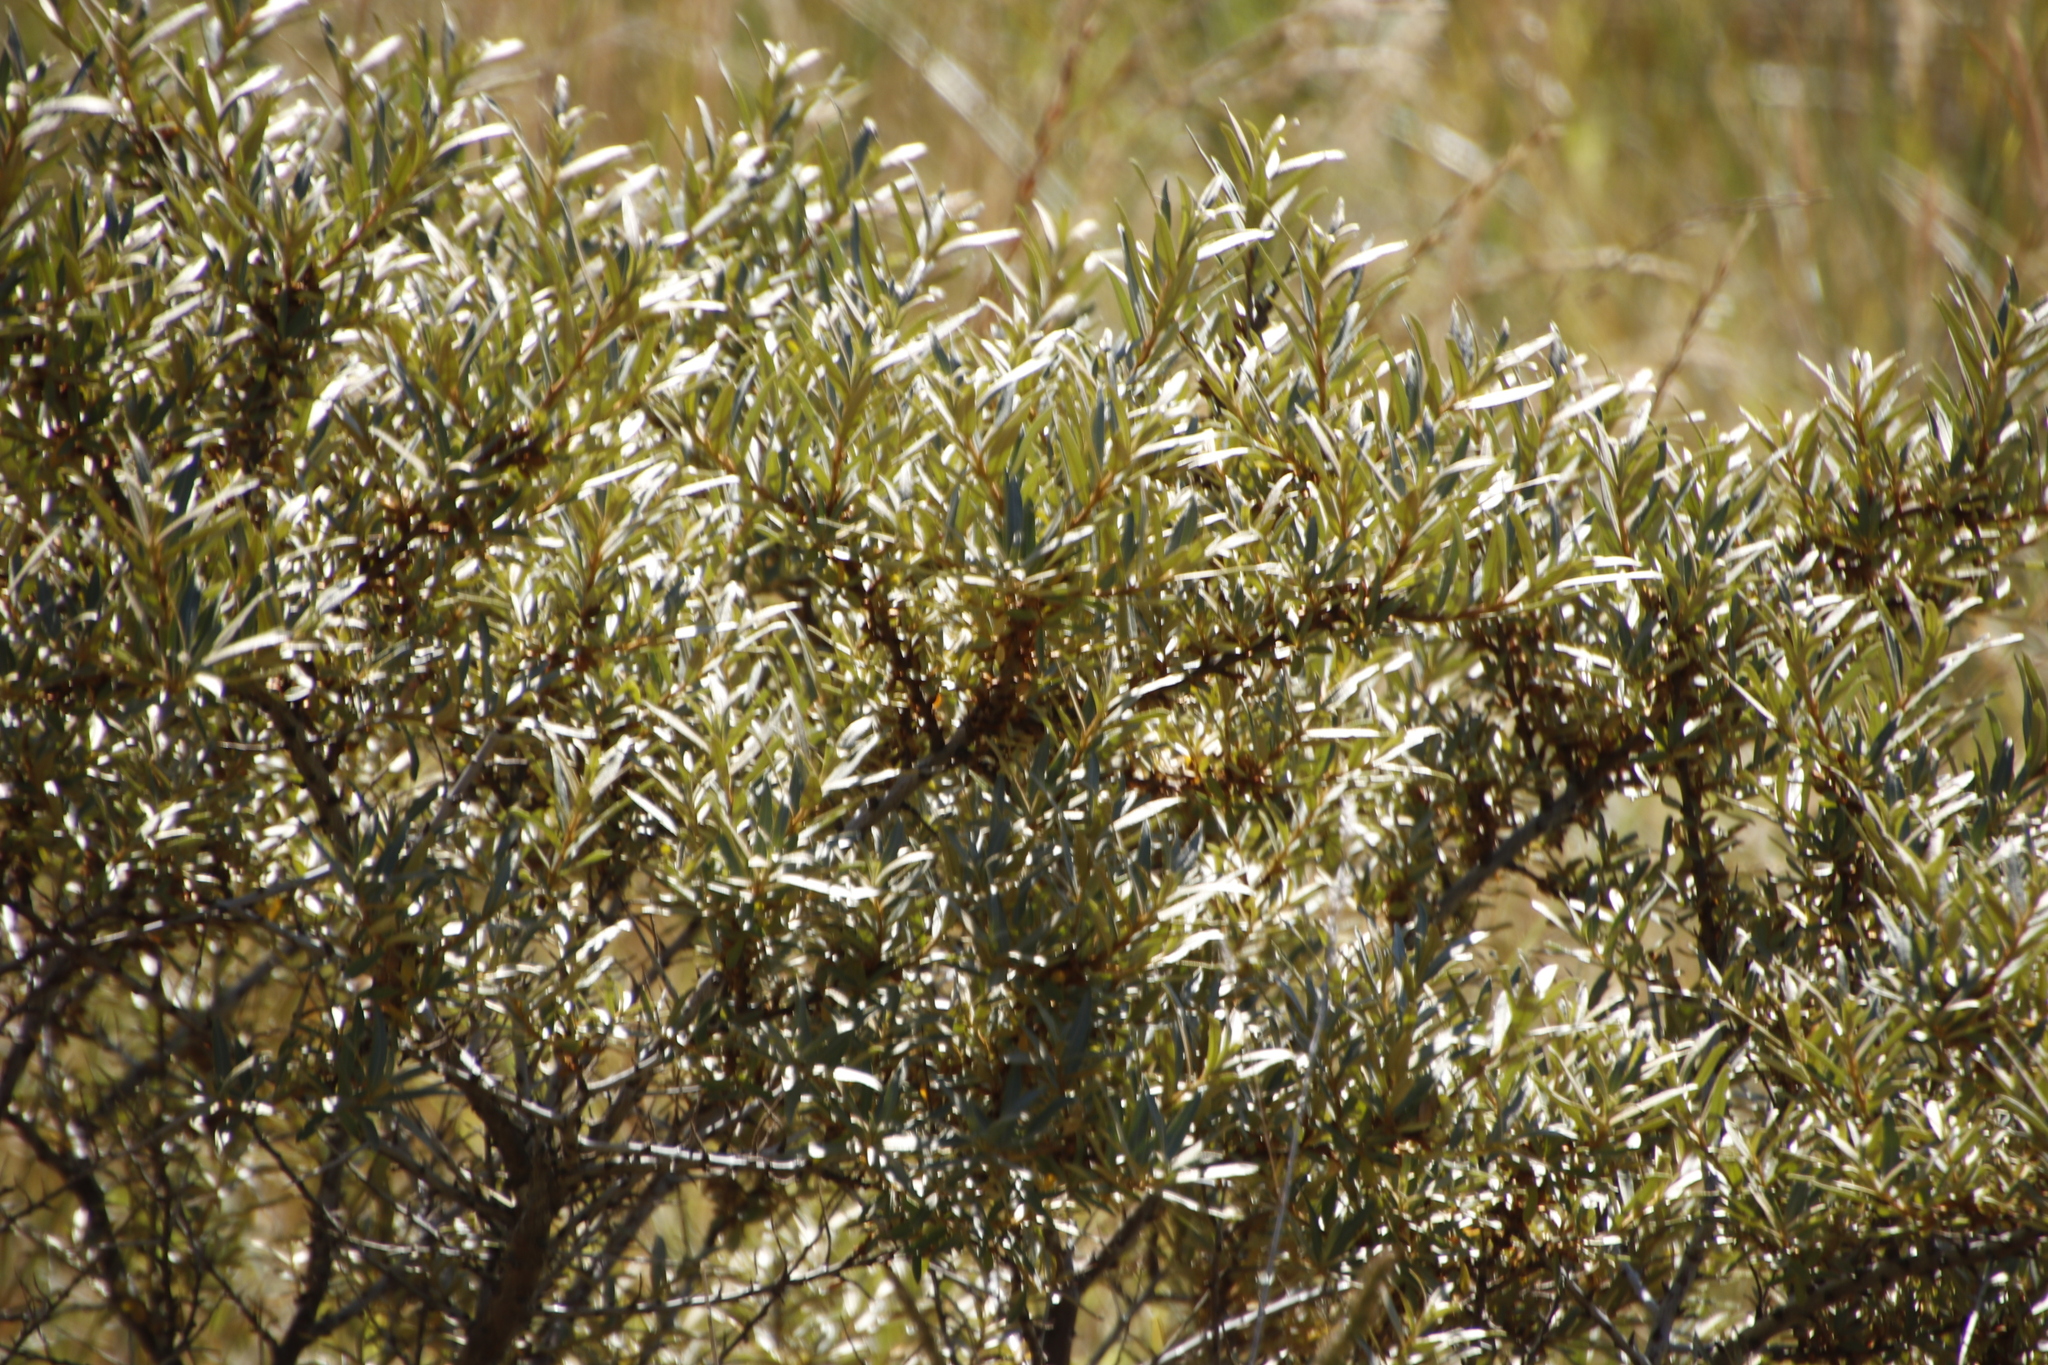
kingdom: Plantae
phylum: Tracheophyta
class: Magnoliopsida
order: Rosales
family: Elaeagnaceae
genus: Hippophae
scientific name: Hippophae rhamnoides
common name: Sea-buckthorn
